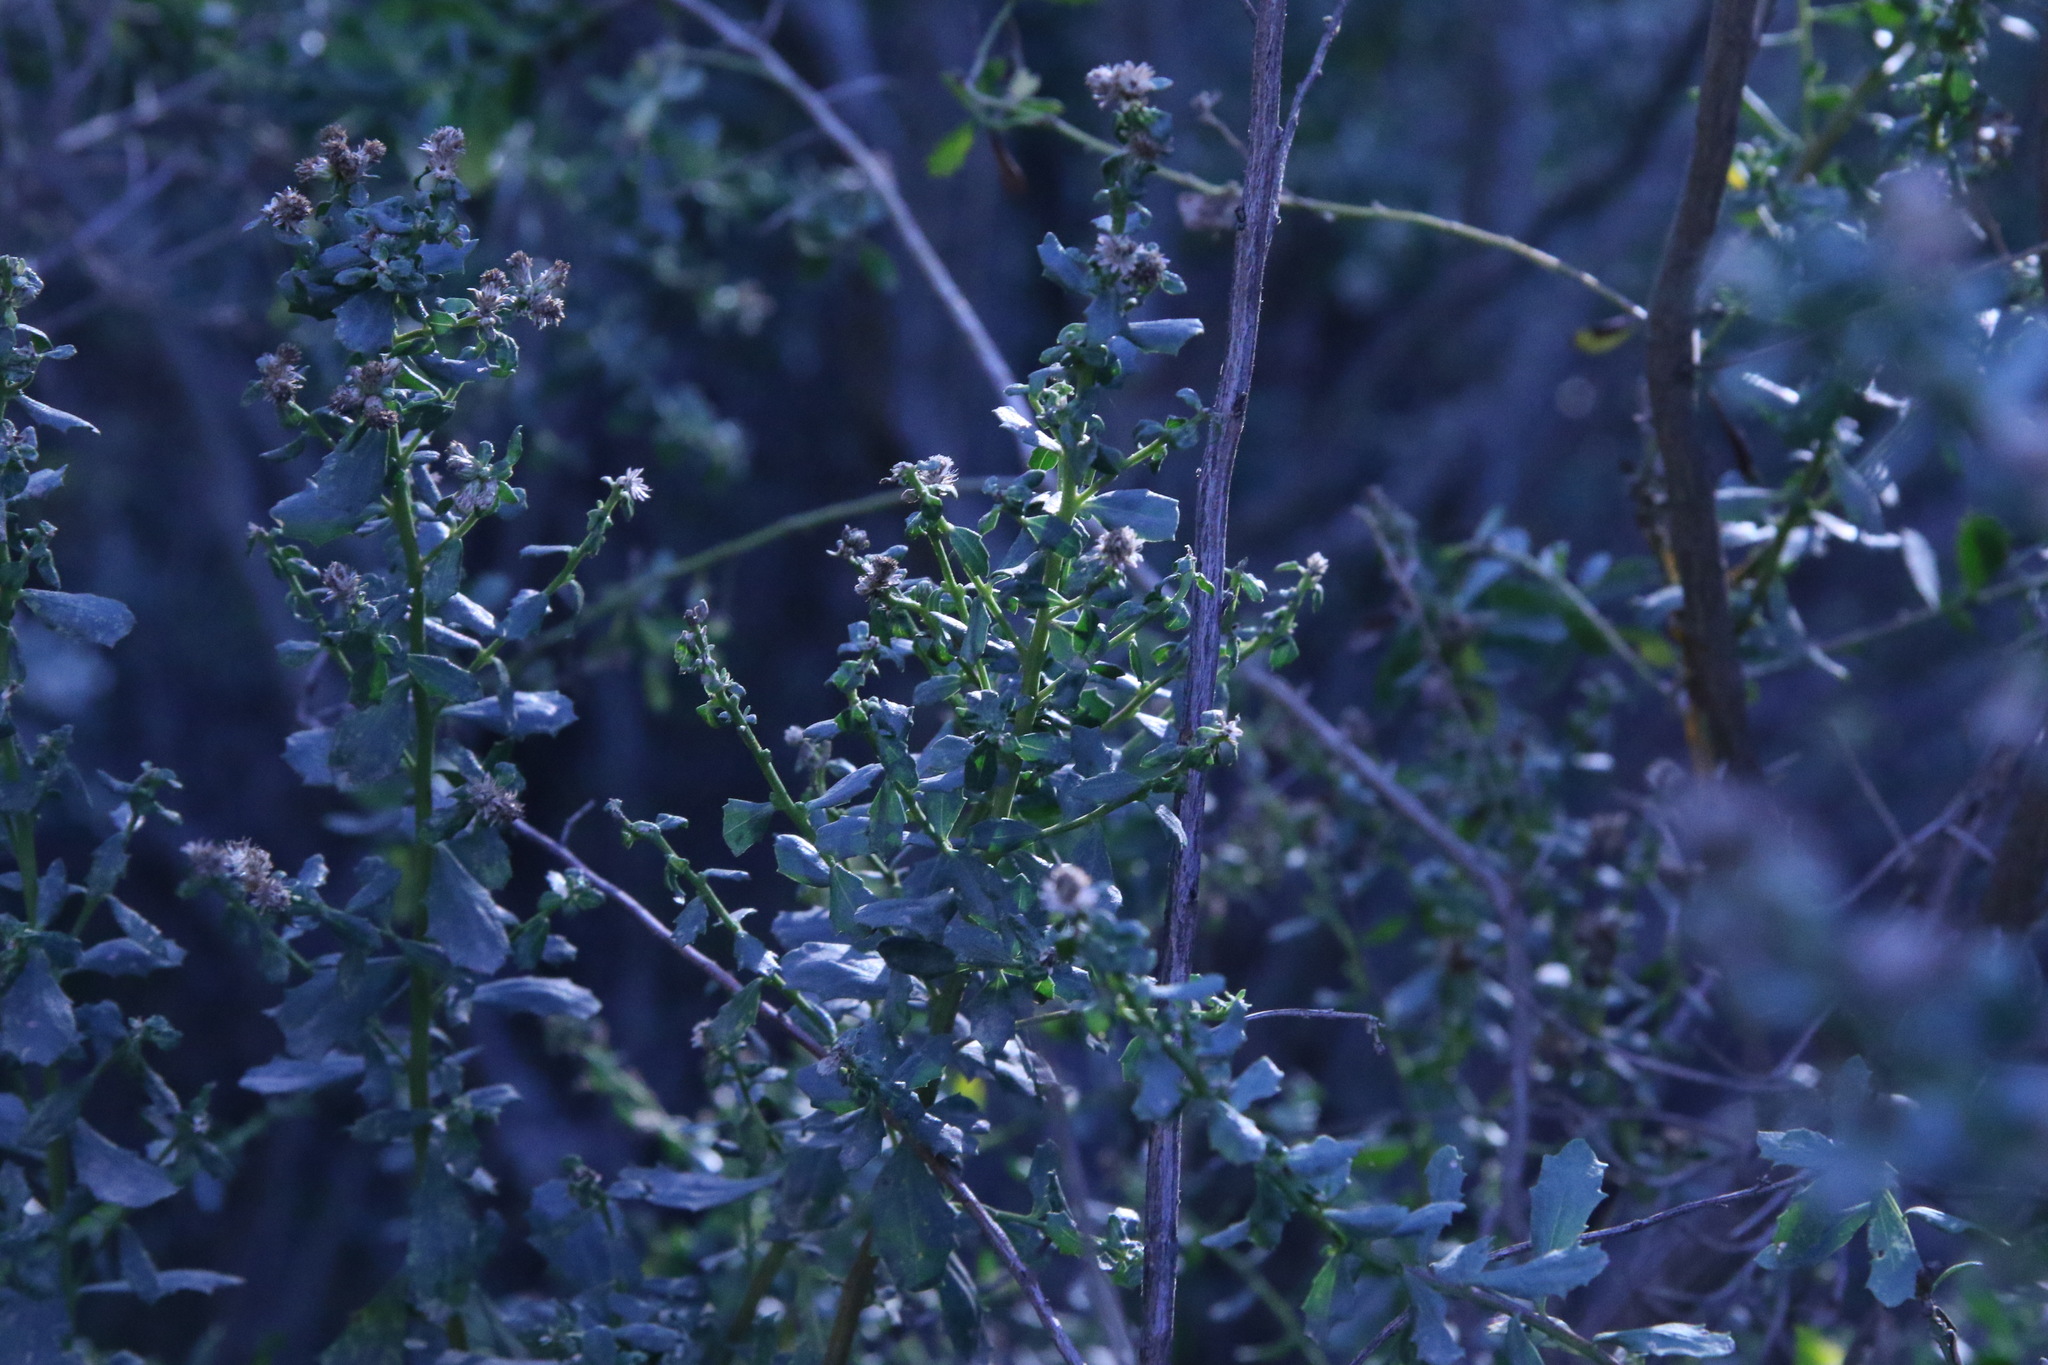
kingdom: Plantae
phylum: Tracheophyta
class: Magnoliopsida
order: Asterales
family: Asteraceae
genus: Baccharis
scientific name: Baccharis pilularis
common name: Coyotebrush
